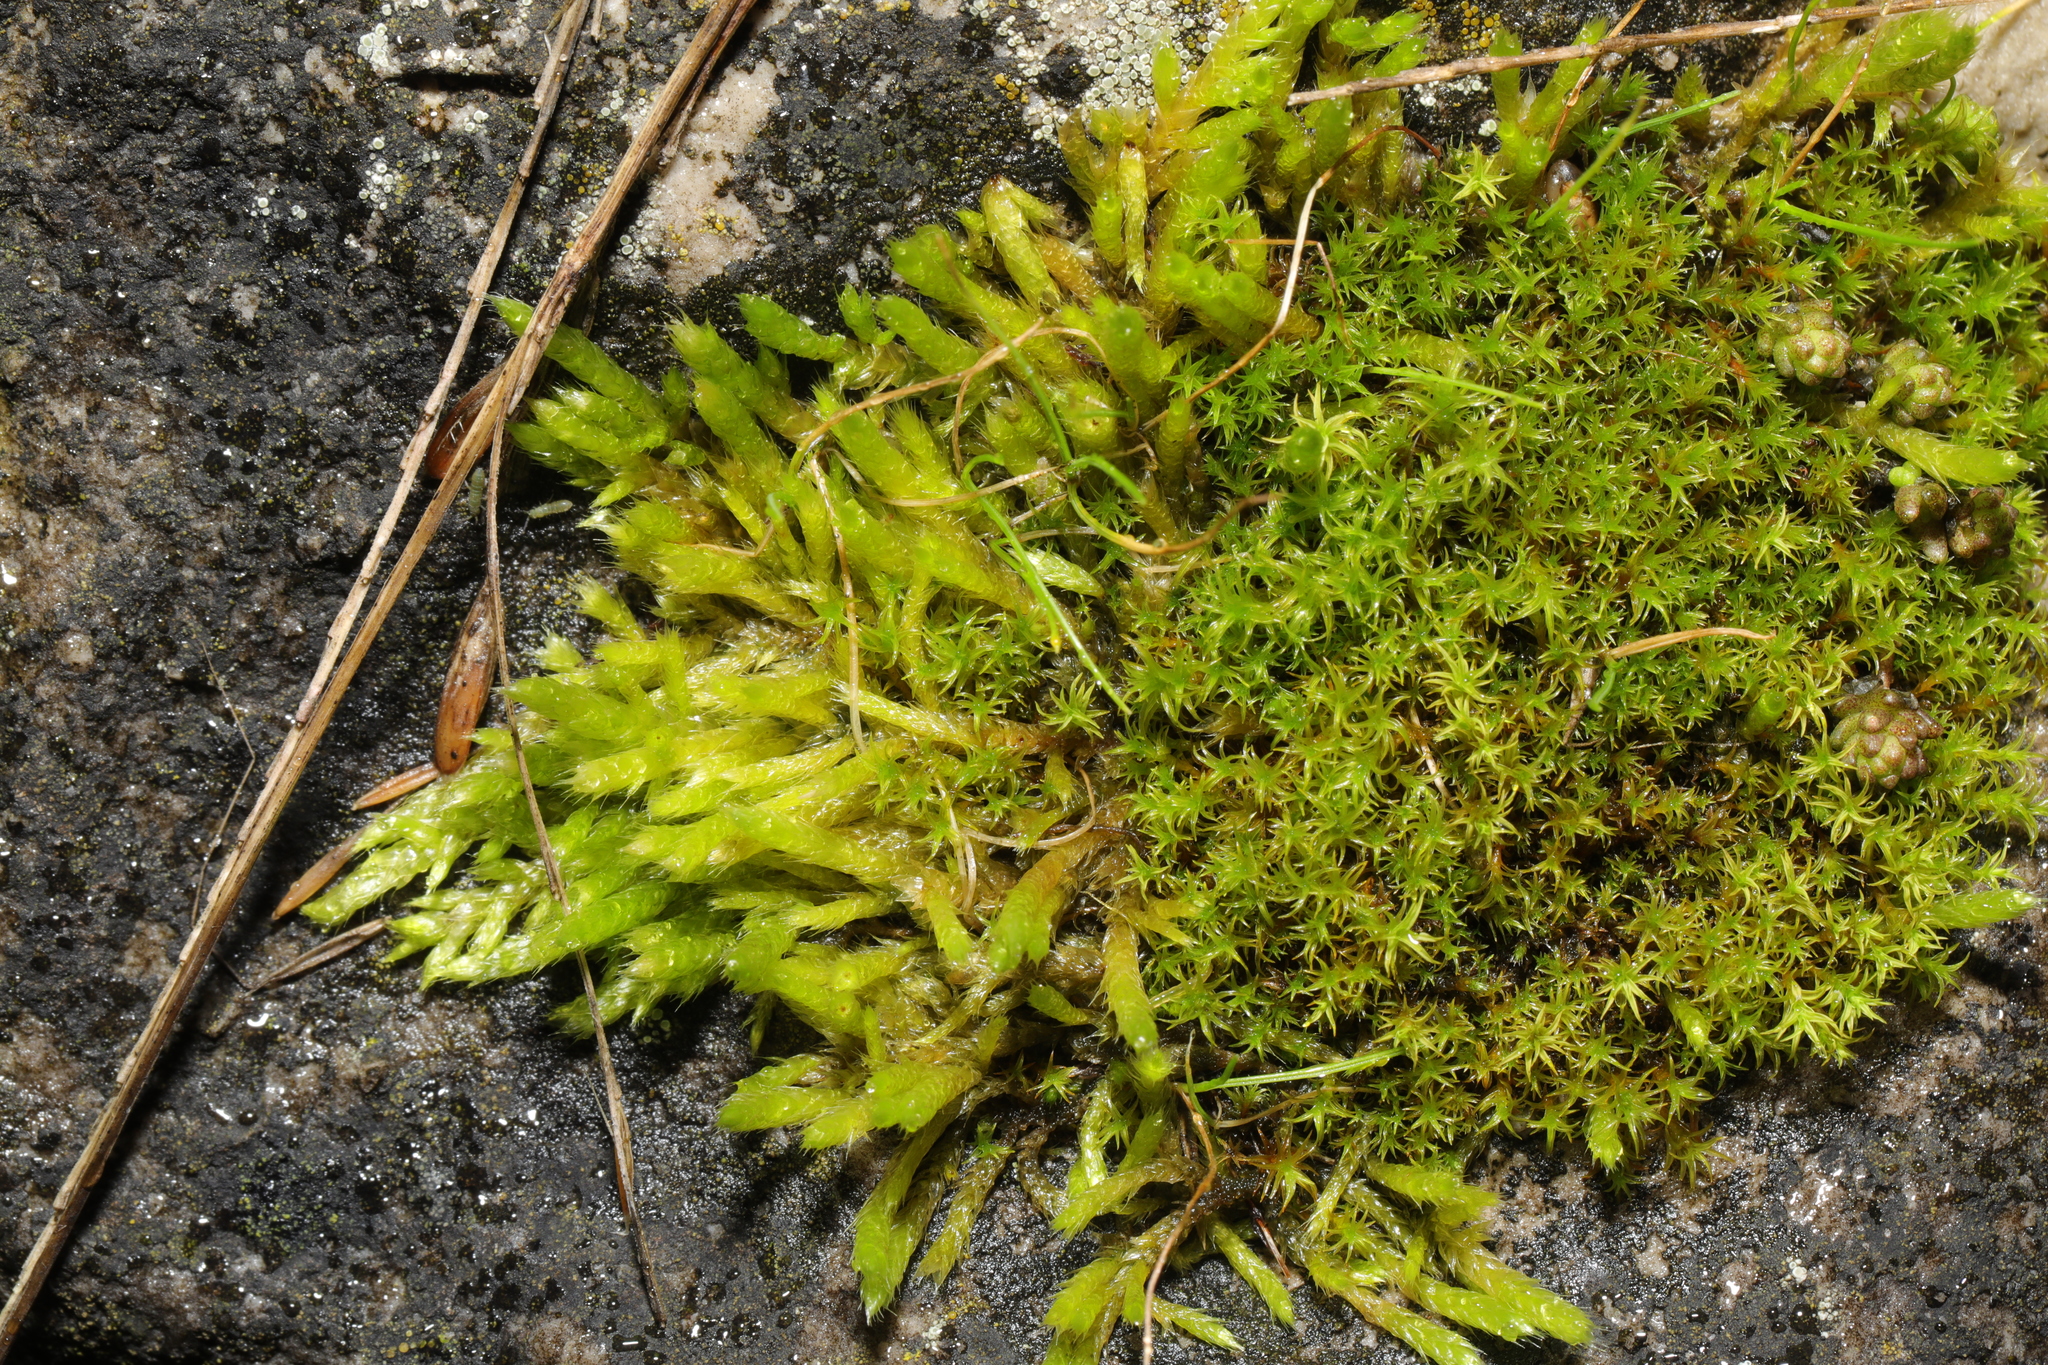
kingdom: Plantae
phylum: Bryophyta
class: Bryopsida
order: Pottiales
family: Pottiaceae
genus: Vinealobryum
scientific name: Vinealobryum insulanum
